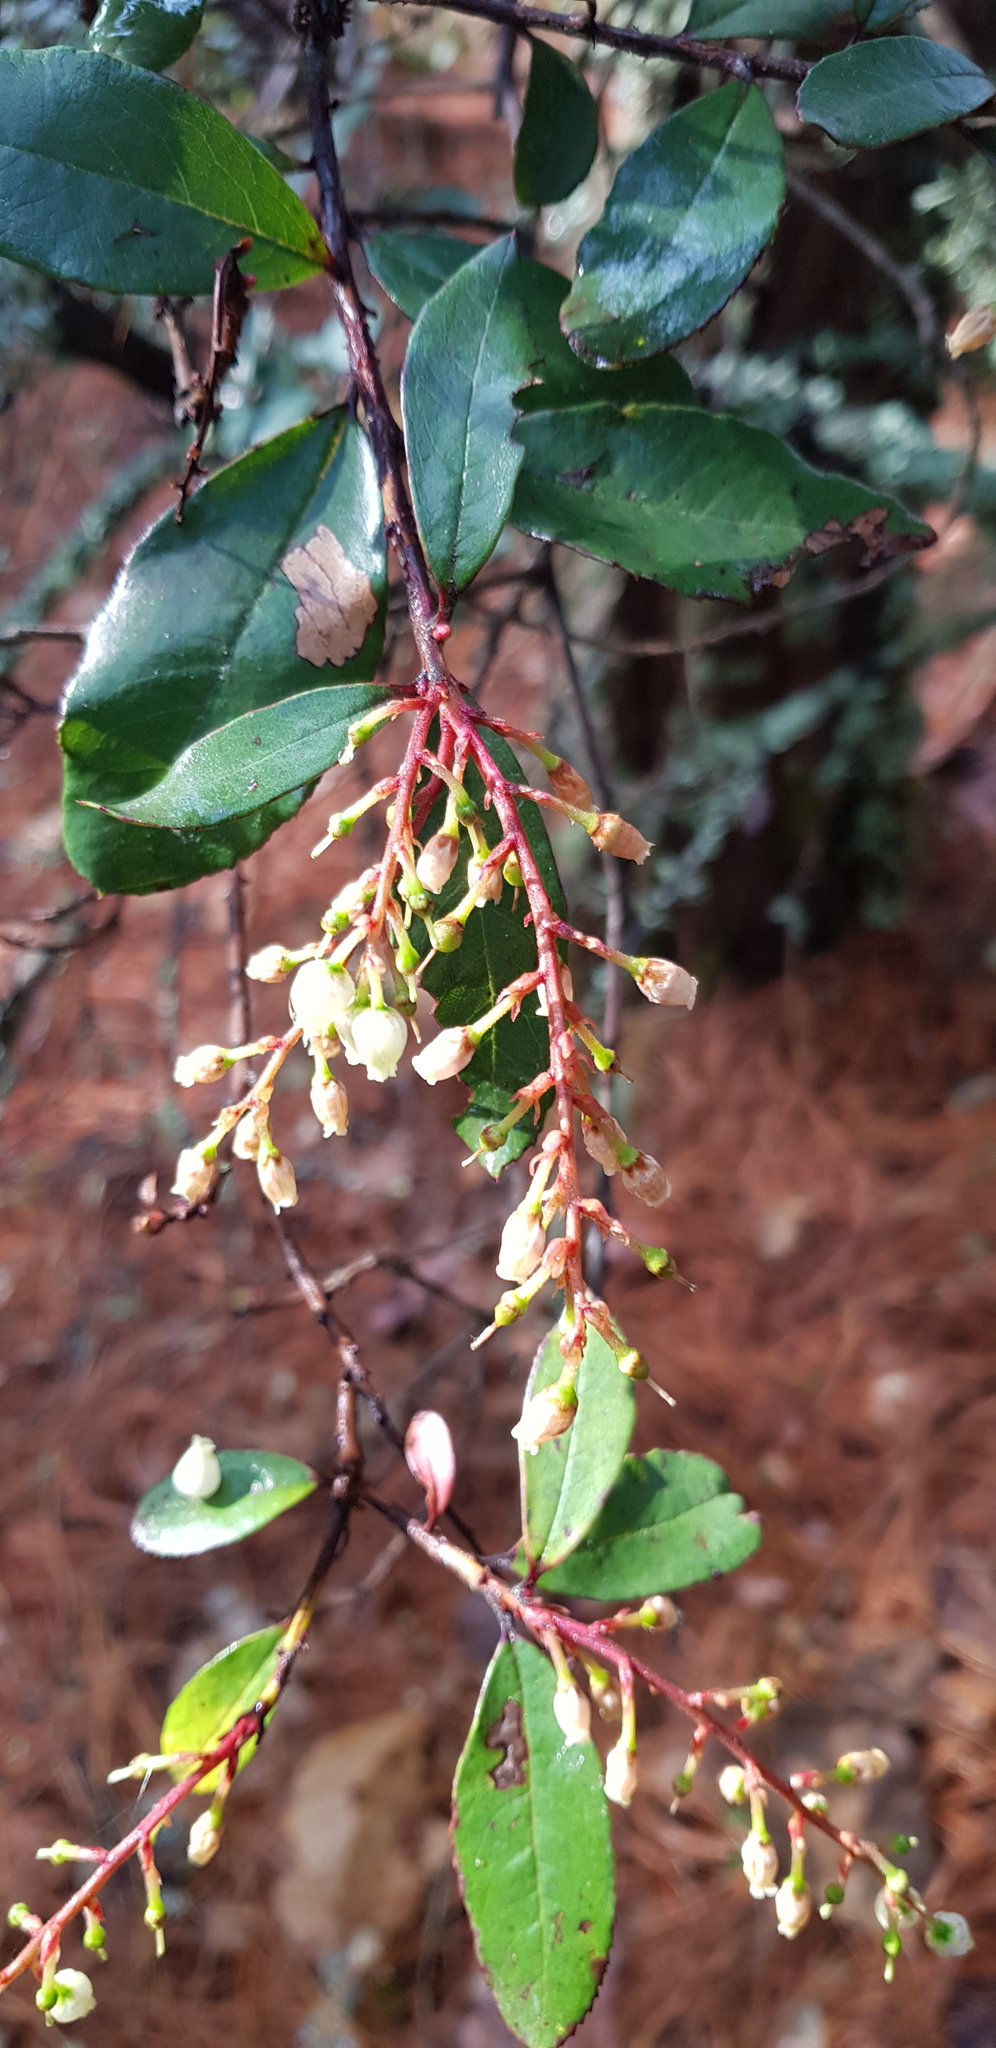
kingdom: Plantae
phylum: Tracheophyta
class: Magnoliopsida
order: Ericales
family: Ericaceae
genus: Comarostaphylis
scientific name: Comarostaphylis discolor
